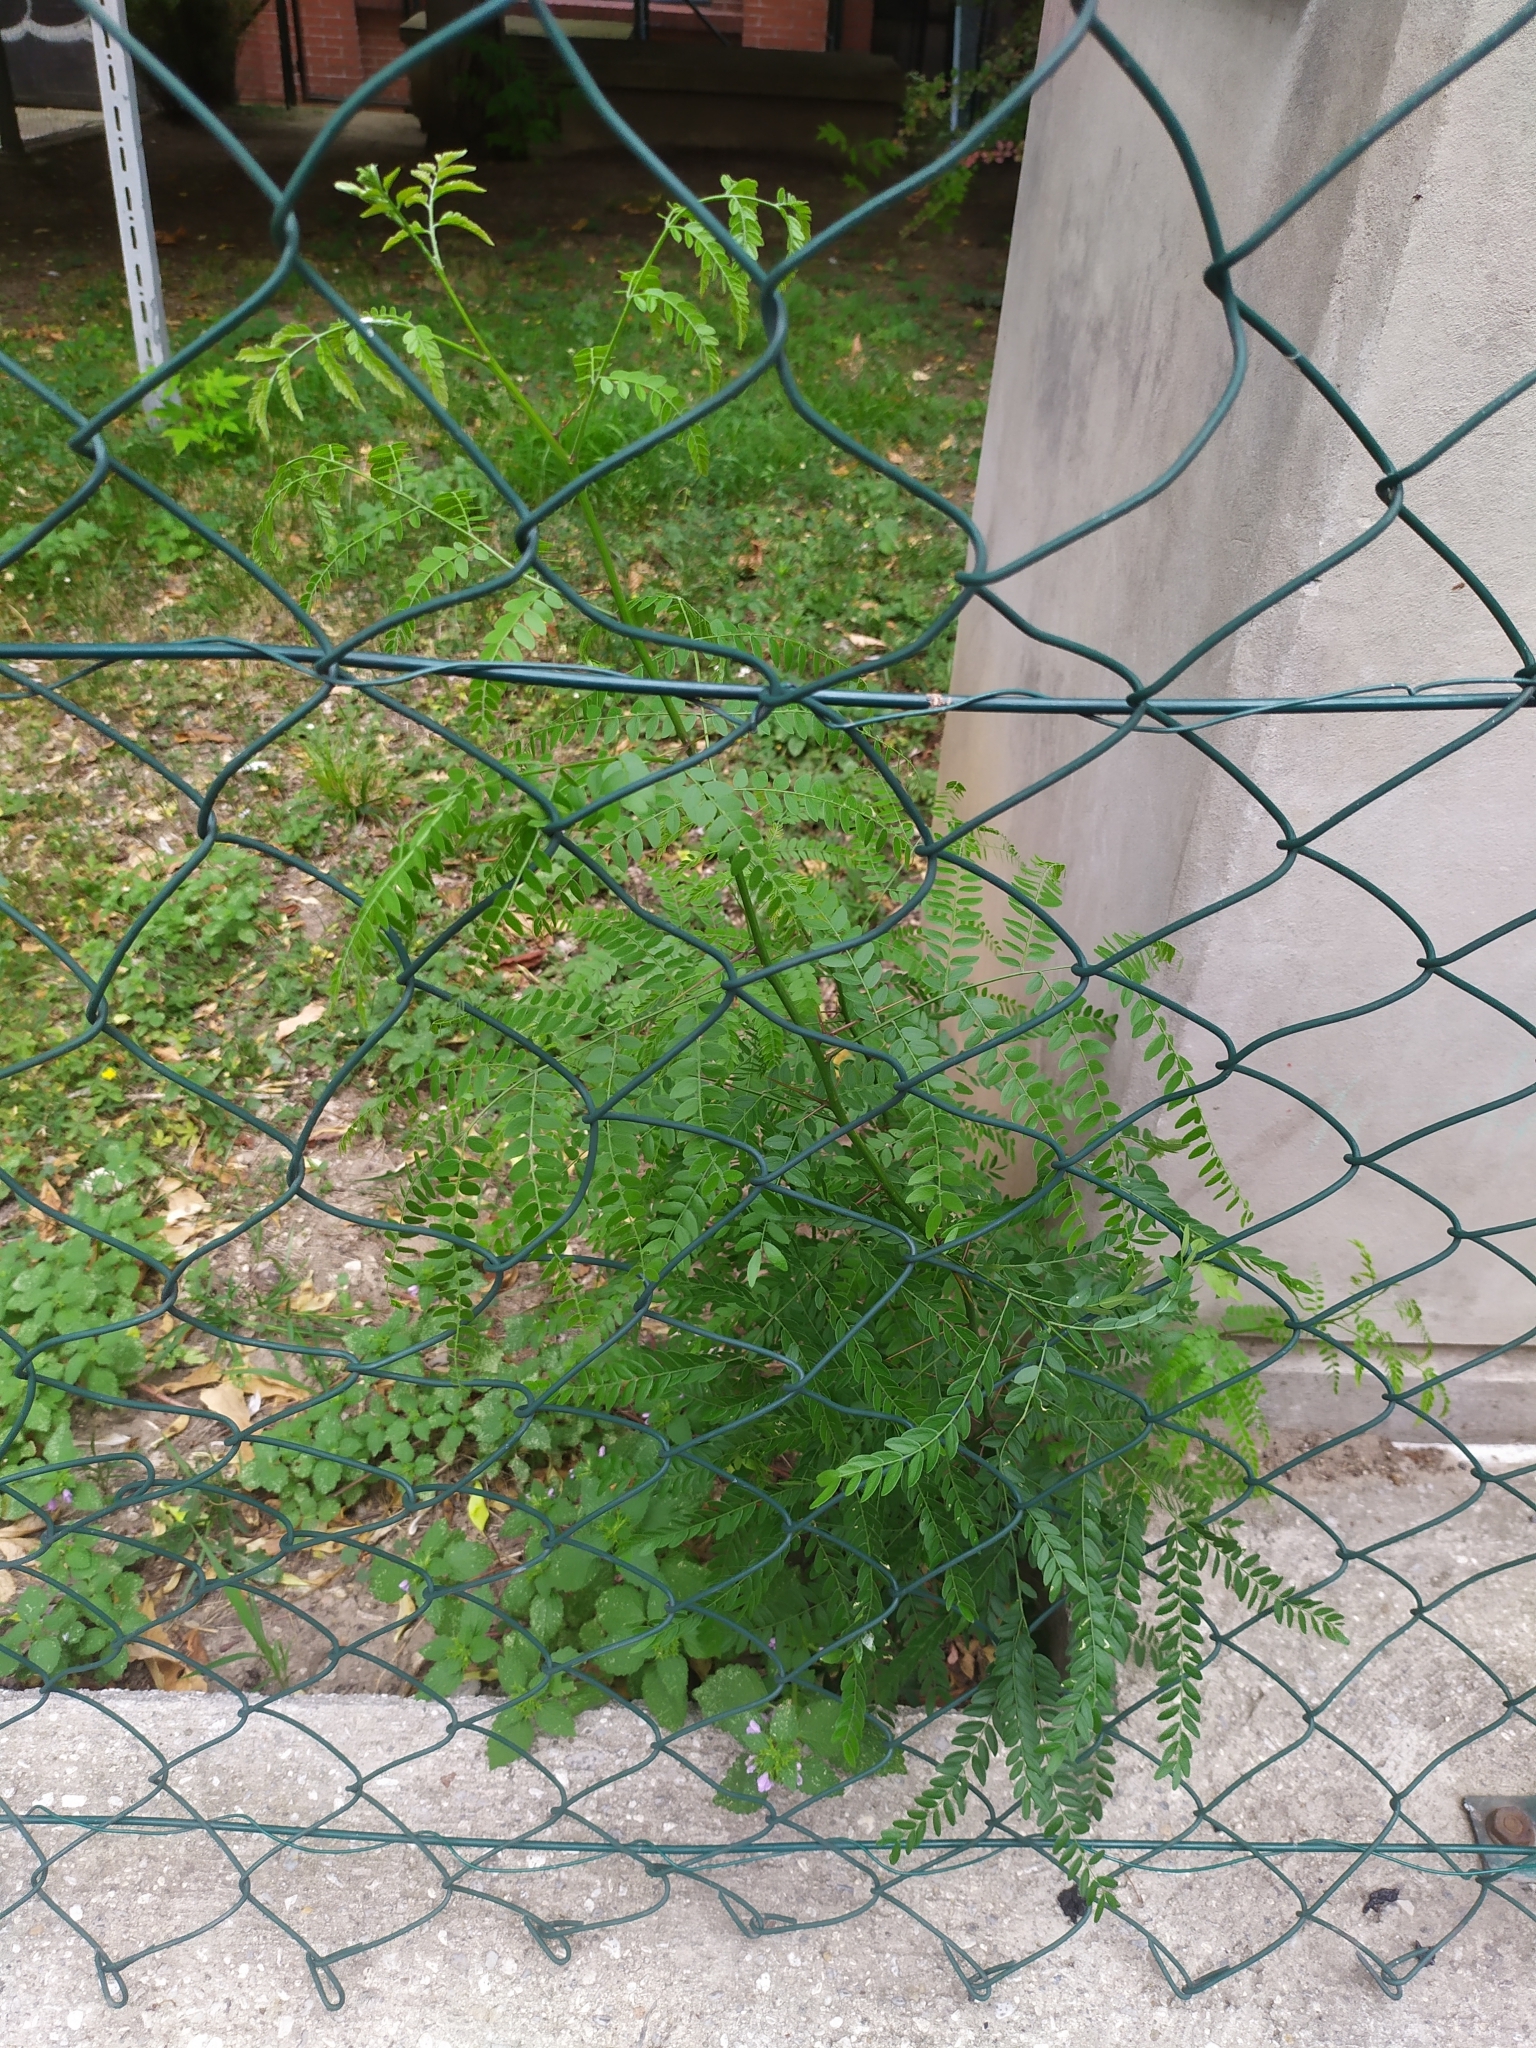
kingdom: Plantae
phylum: Tracheophyta
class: Magnoliopsida
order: Fabales
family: Fabaceae
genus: Gleditsia
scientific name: Gleditsia triacanthos
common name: Common honeylocust
